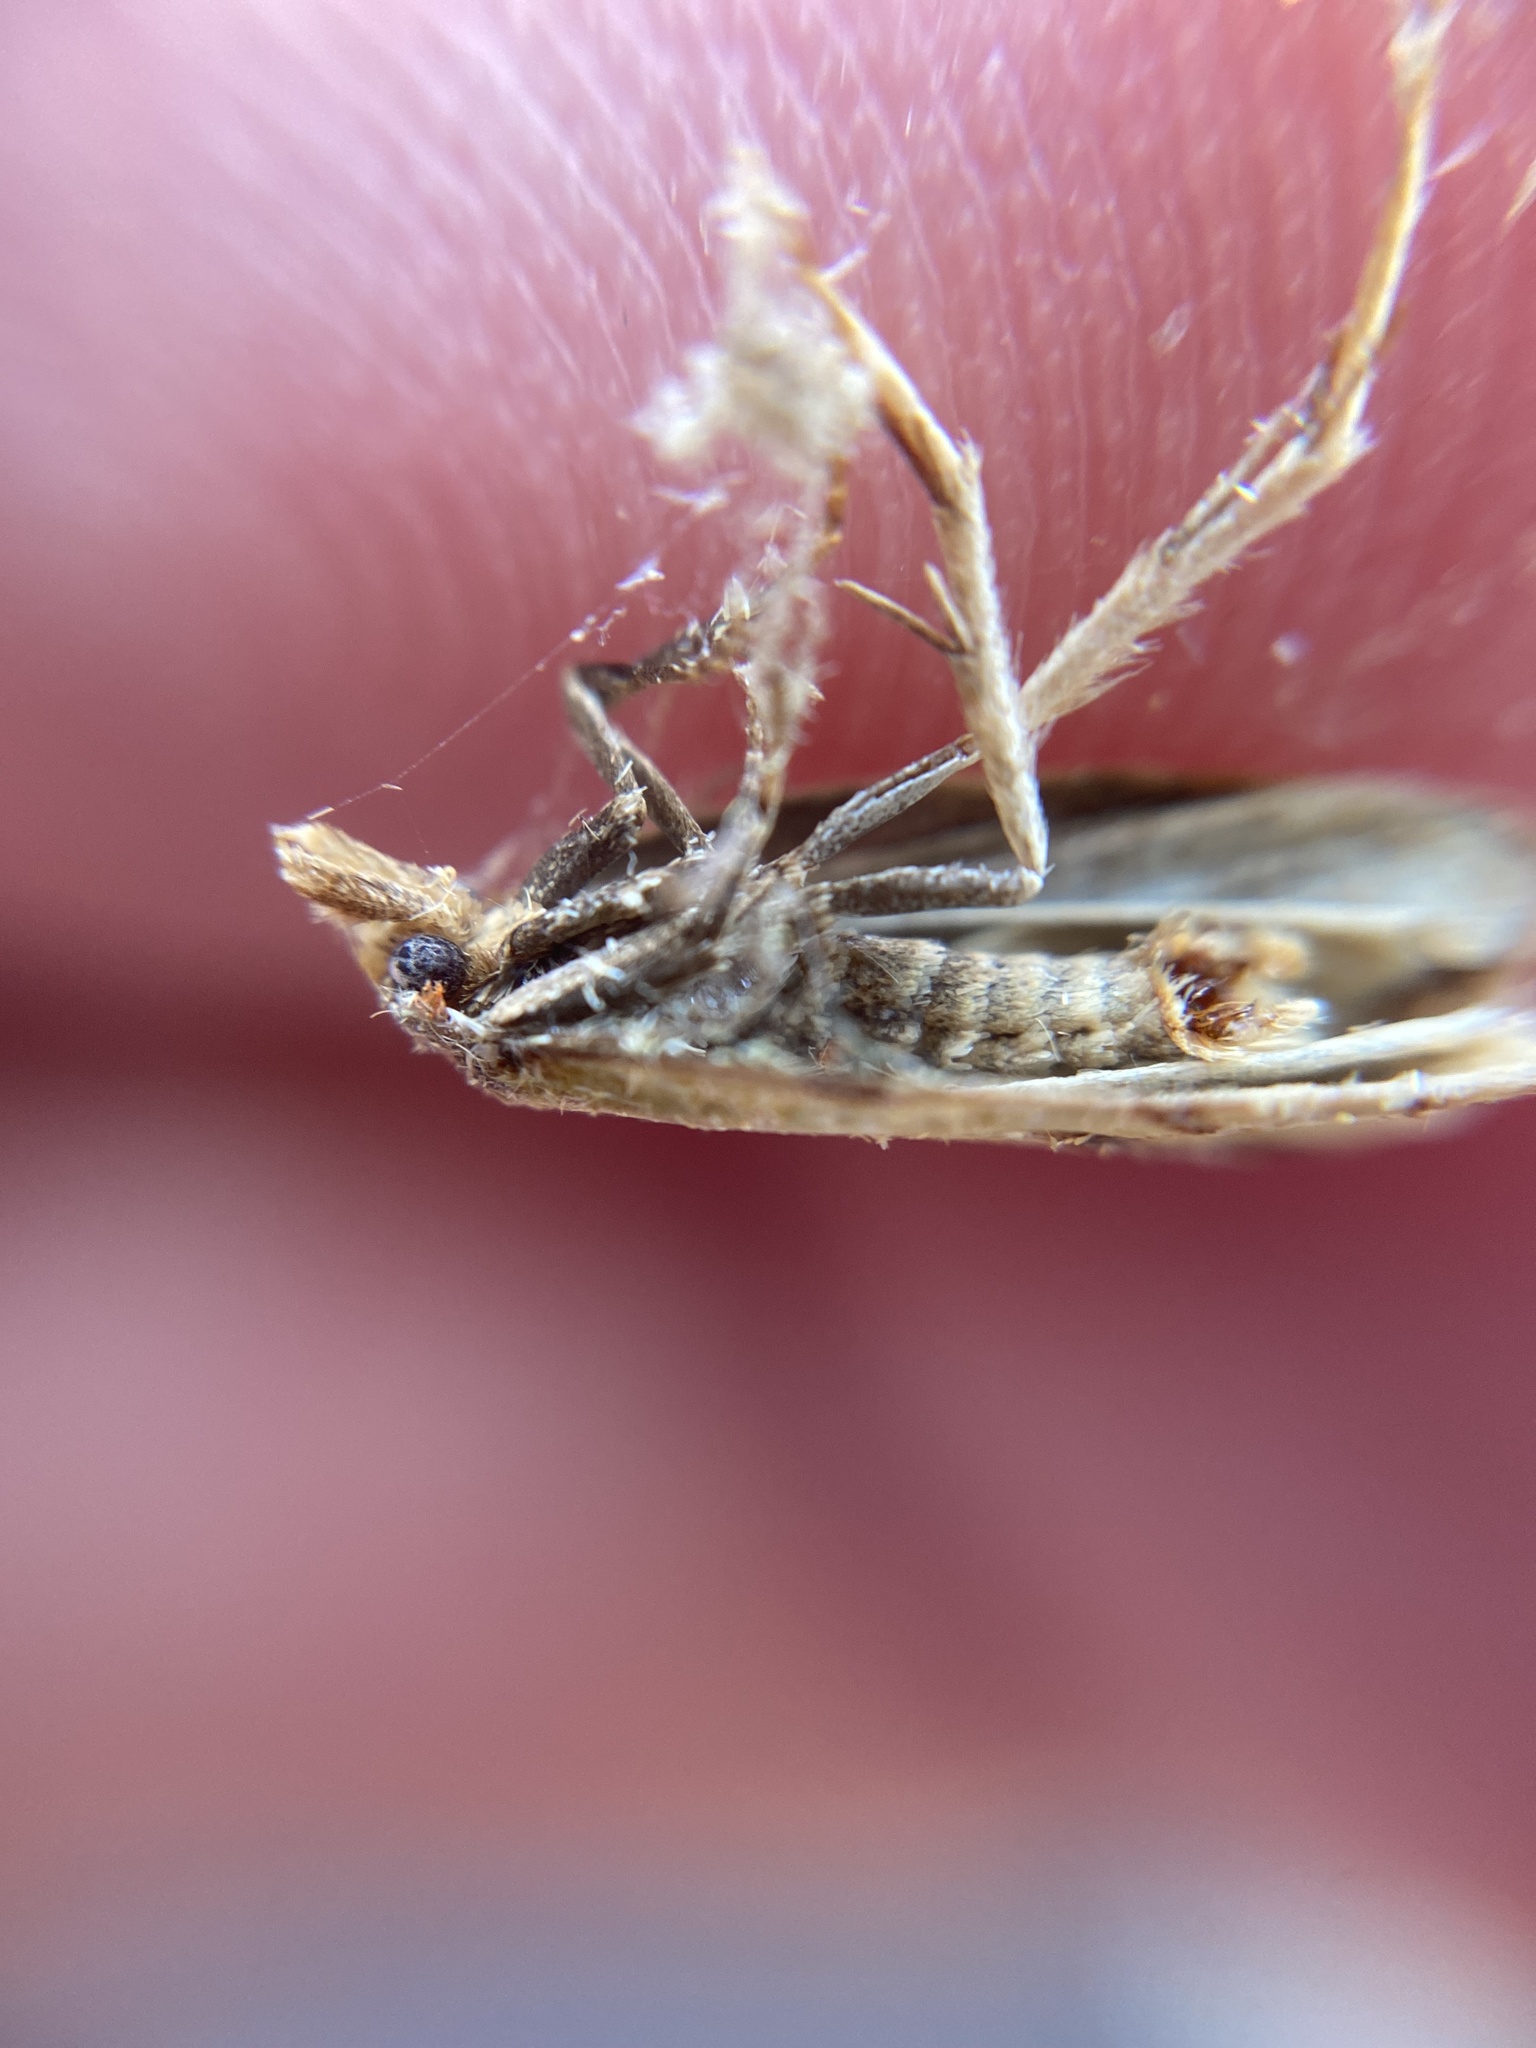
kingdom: Animalia
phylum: Arthropoda
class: Insecta
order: Lepidoptera
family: Tortricidae
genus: Agapeta
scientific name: Agapeta hamana
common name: Common yellow conch
